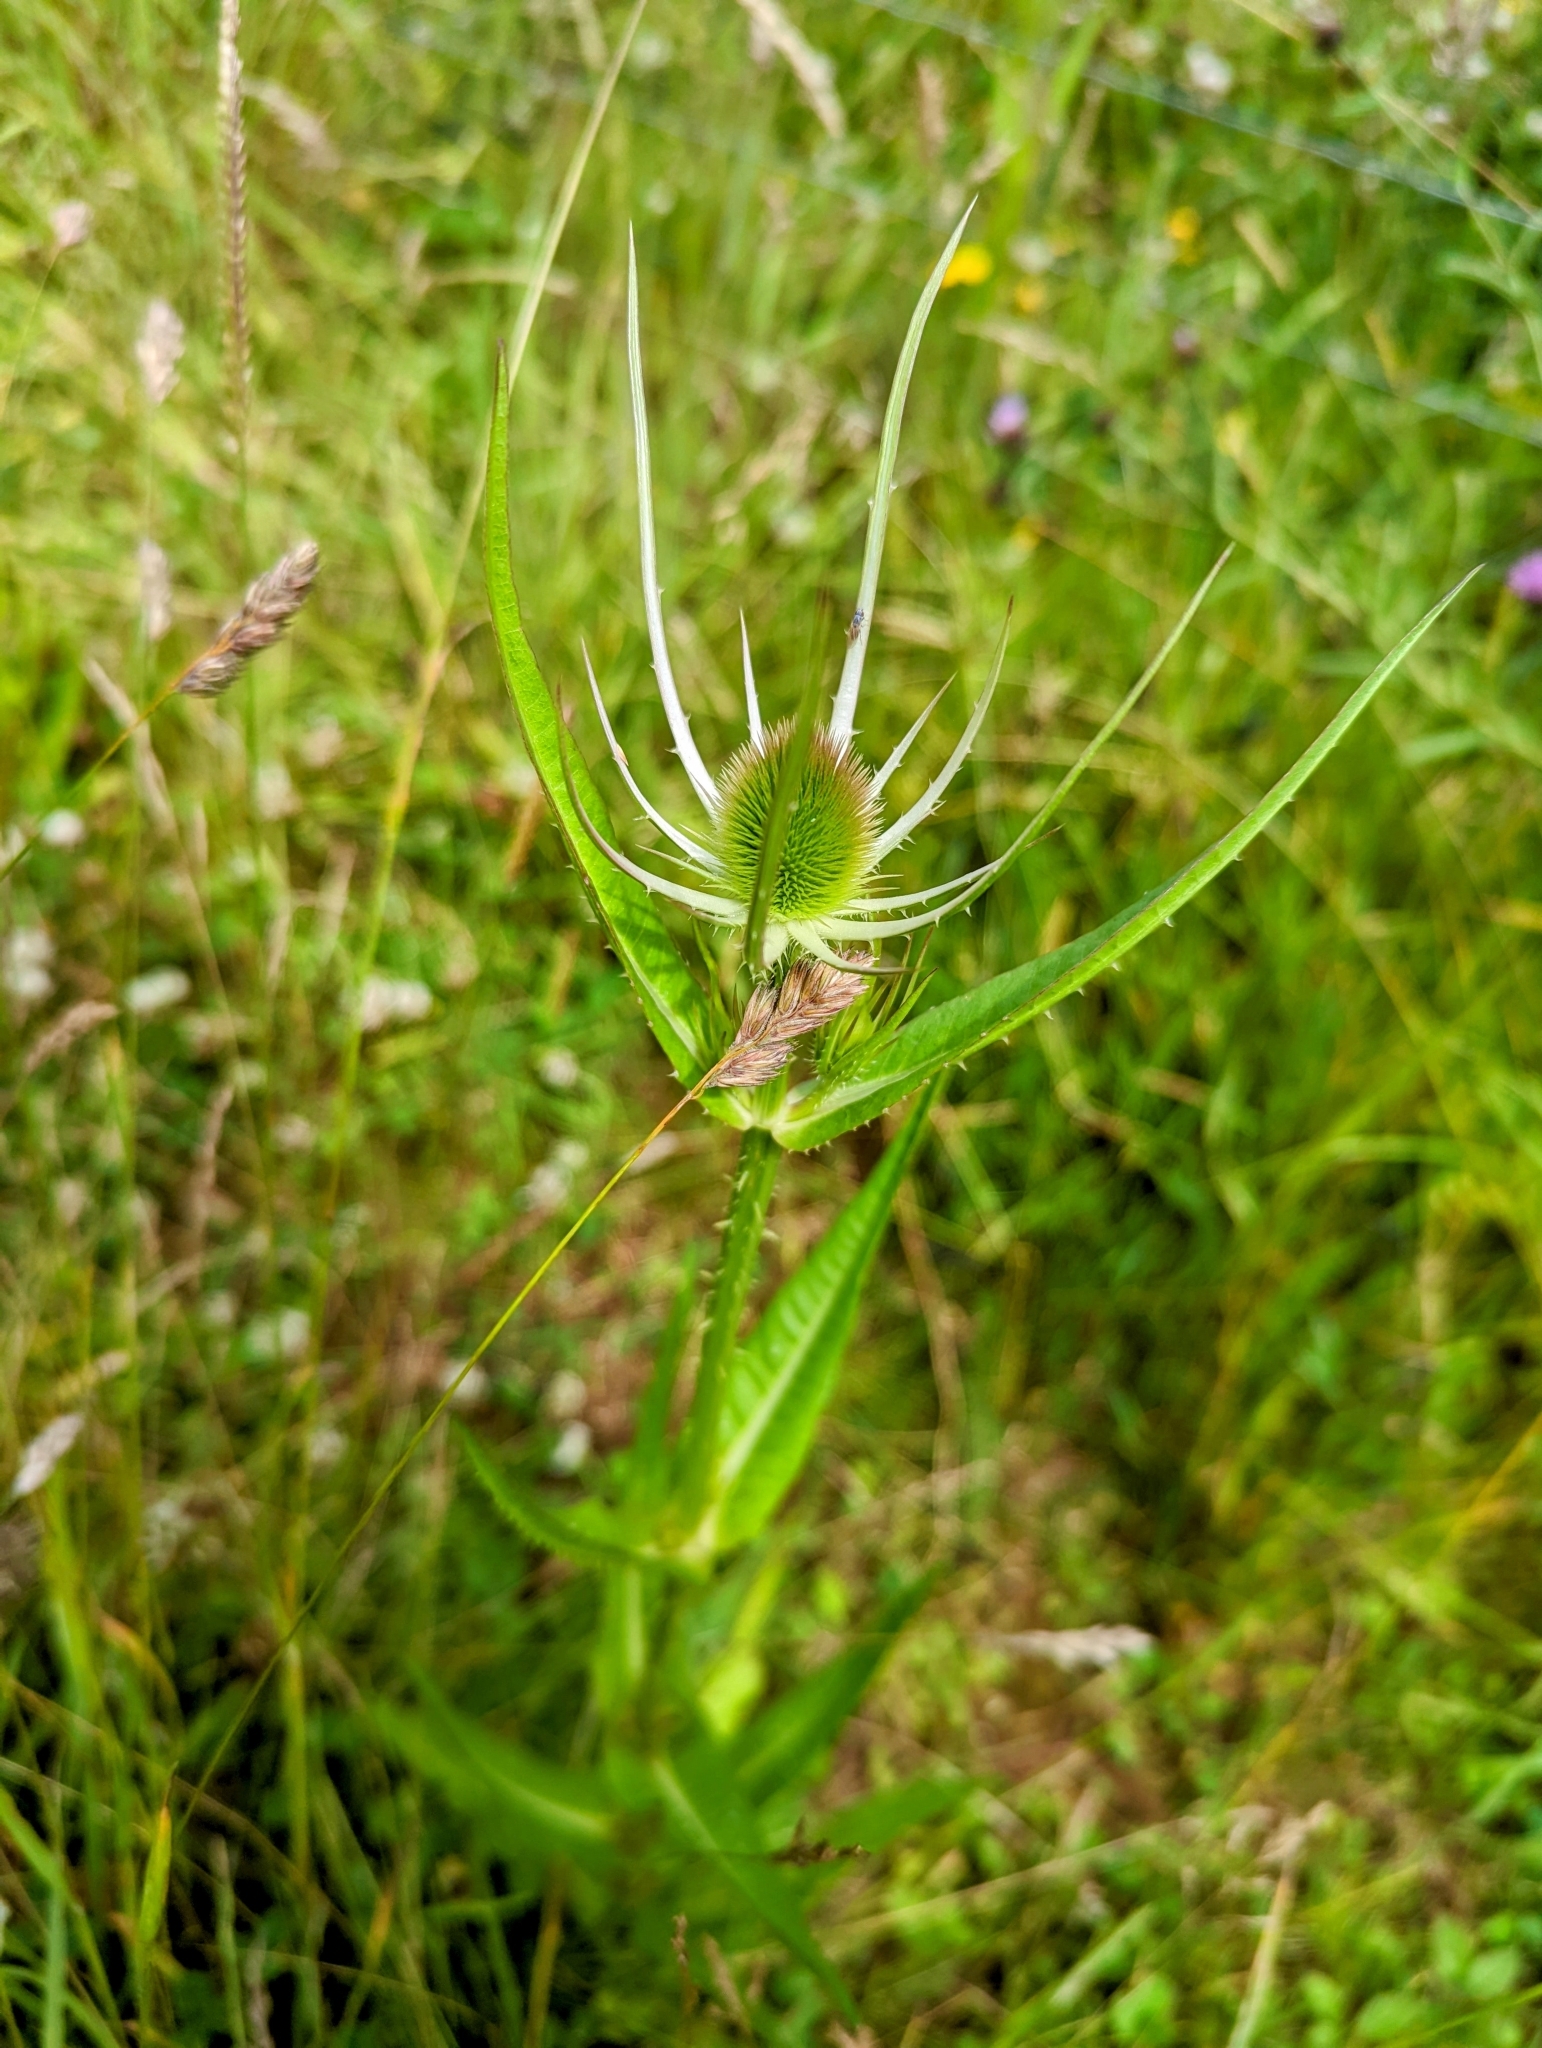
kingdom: Plantae
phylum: Tracheophyta
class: Magnoliopsida
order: Dipsacales
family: Caprifoliaceae
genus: Dipsacus
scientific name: Dipsacus fullonum
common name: Teasel
